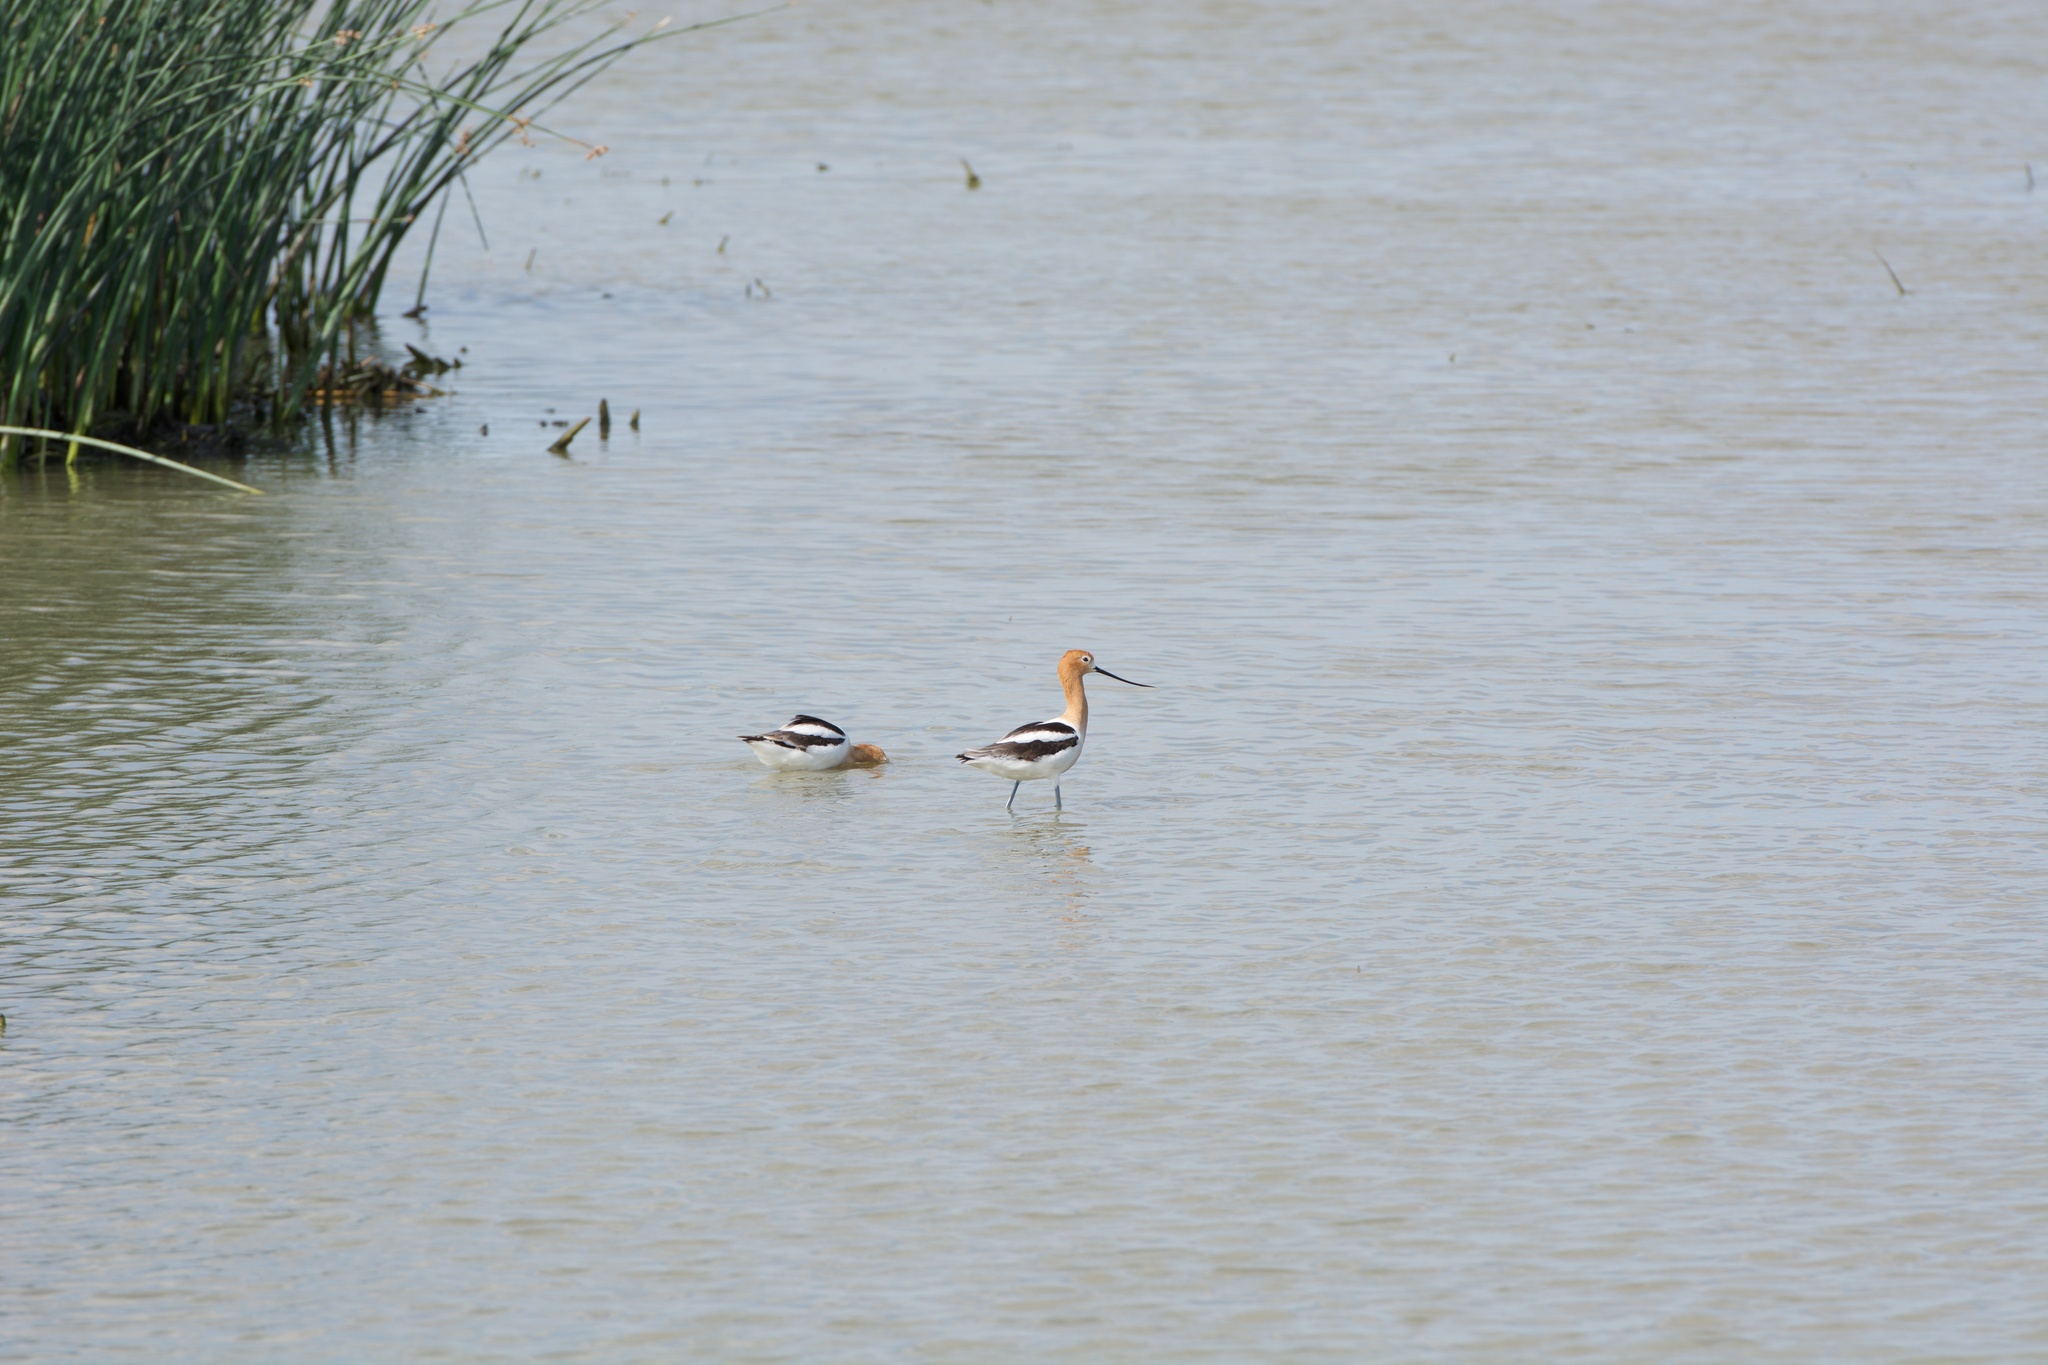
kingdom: Animalia
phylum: Chordata
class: Aves
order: Charadriiformes
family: Recurvirostridae
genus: Recurvirostra
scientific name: Recurvirostra americana
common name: American avocet
